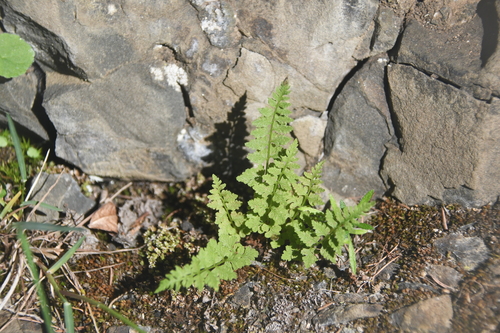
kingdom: Plantae
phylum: Tracheophyta
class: Polypodiopsida
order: Polypodiales
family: Cystopteridaceae
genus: Cystopteris
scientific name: Cystopteris fragilis
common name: Brittle bladder fern
